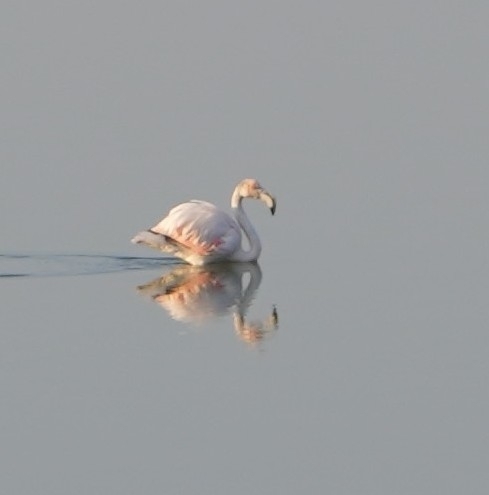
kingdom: Animalia
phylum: Chordata
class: Aves
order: Phoenicopteriformes
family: Phoenicopteridae
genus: Phoenicopterus
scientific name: Phoenicopterus roseus
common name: Greater flamingo
